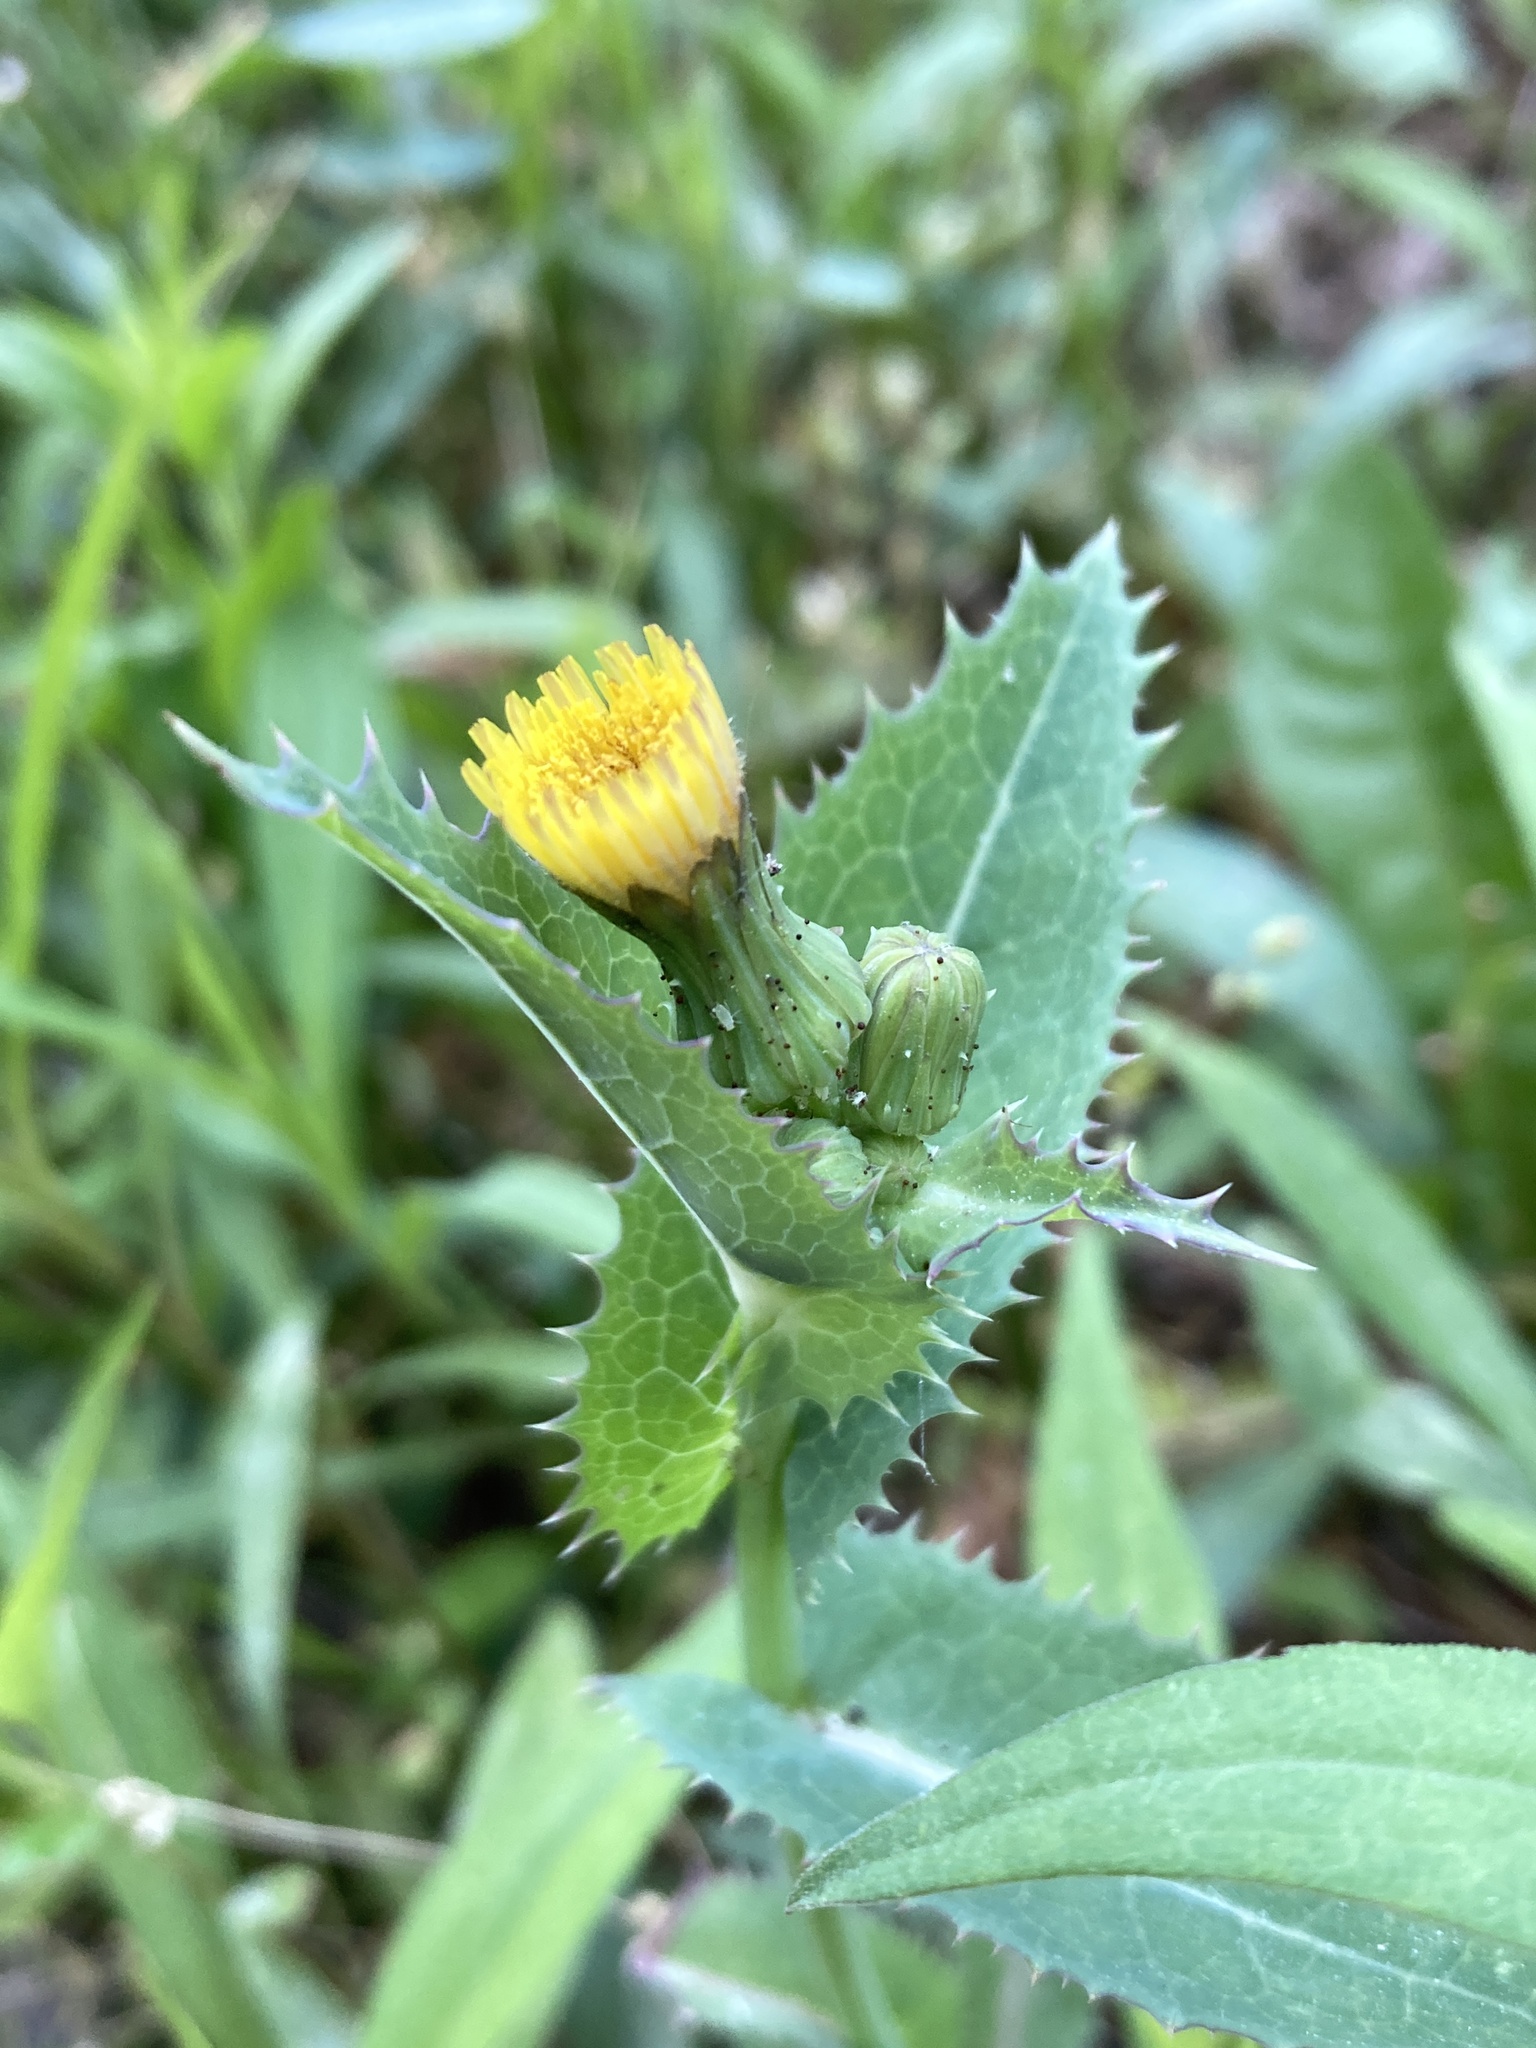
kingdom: Plantae
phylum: Tracheophyta
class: Magnoliopsida
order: Asterales
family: Asteraceae
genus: Sonchus
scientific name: Sonchus asper
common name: Prickly sow-thistle
